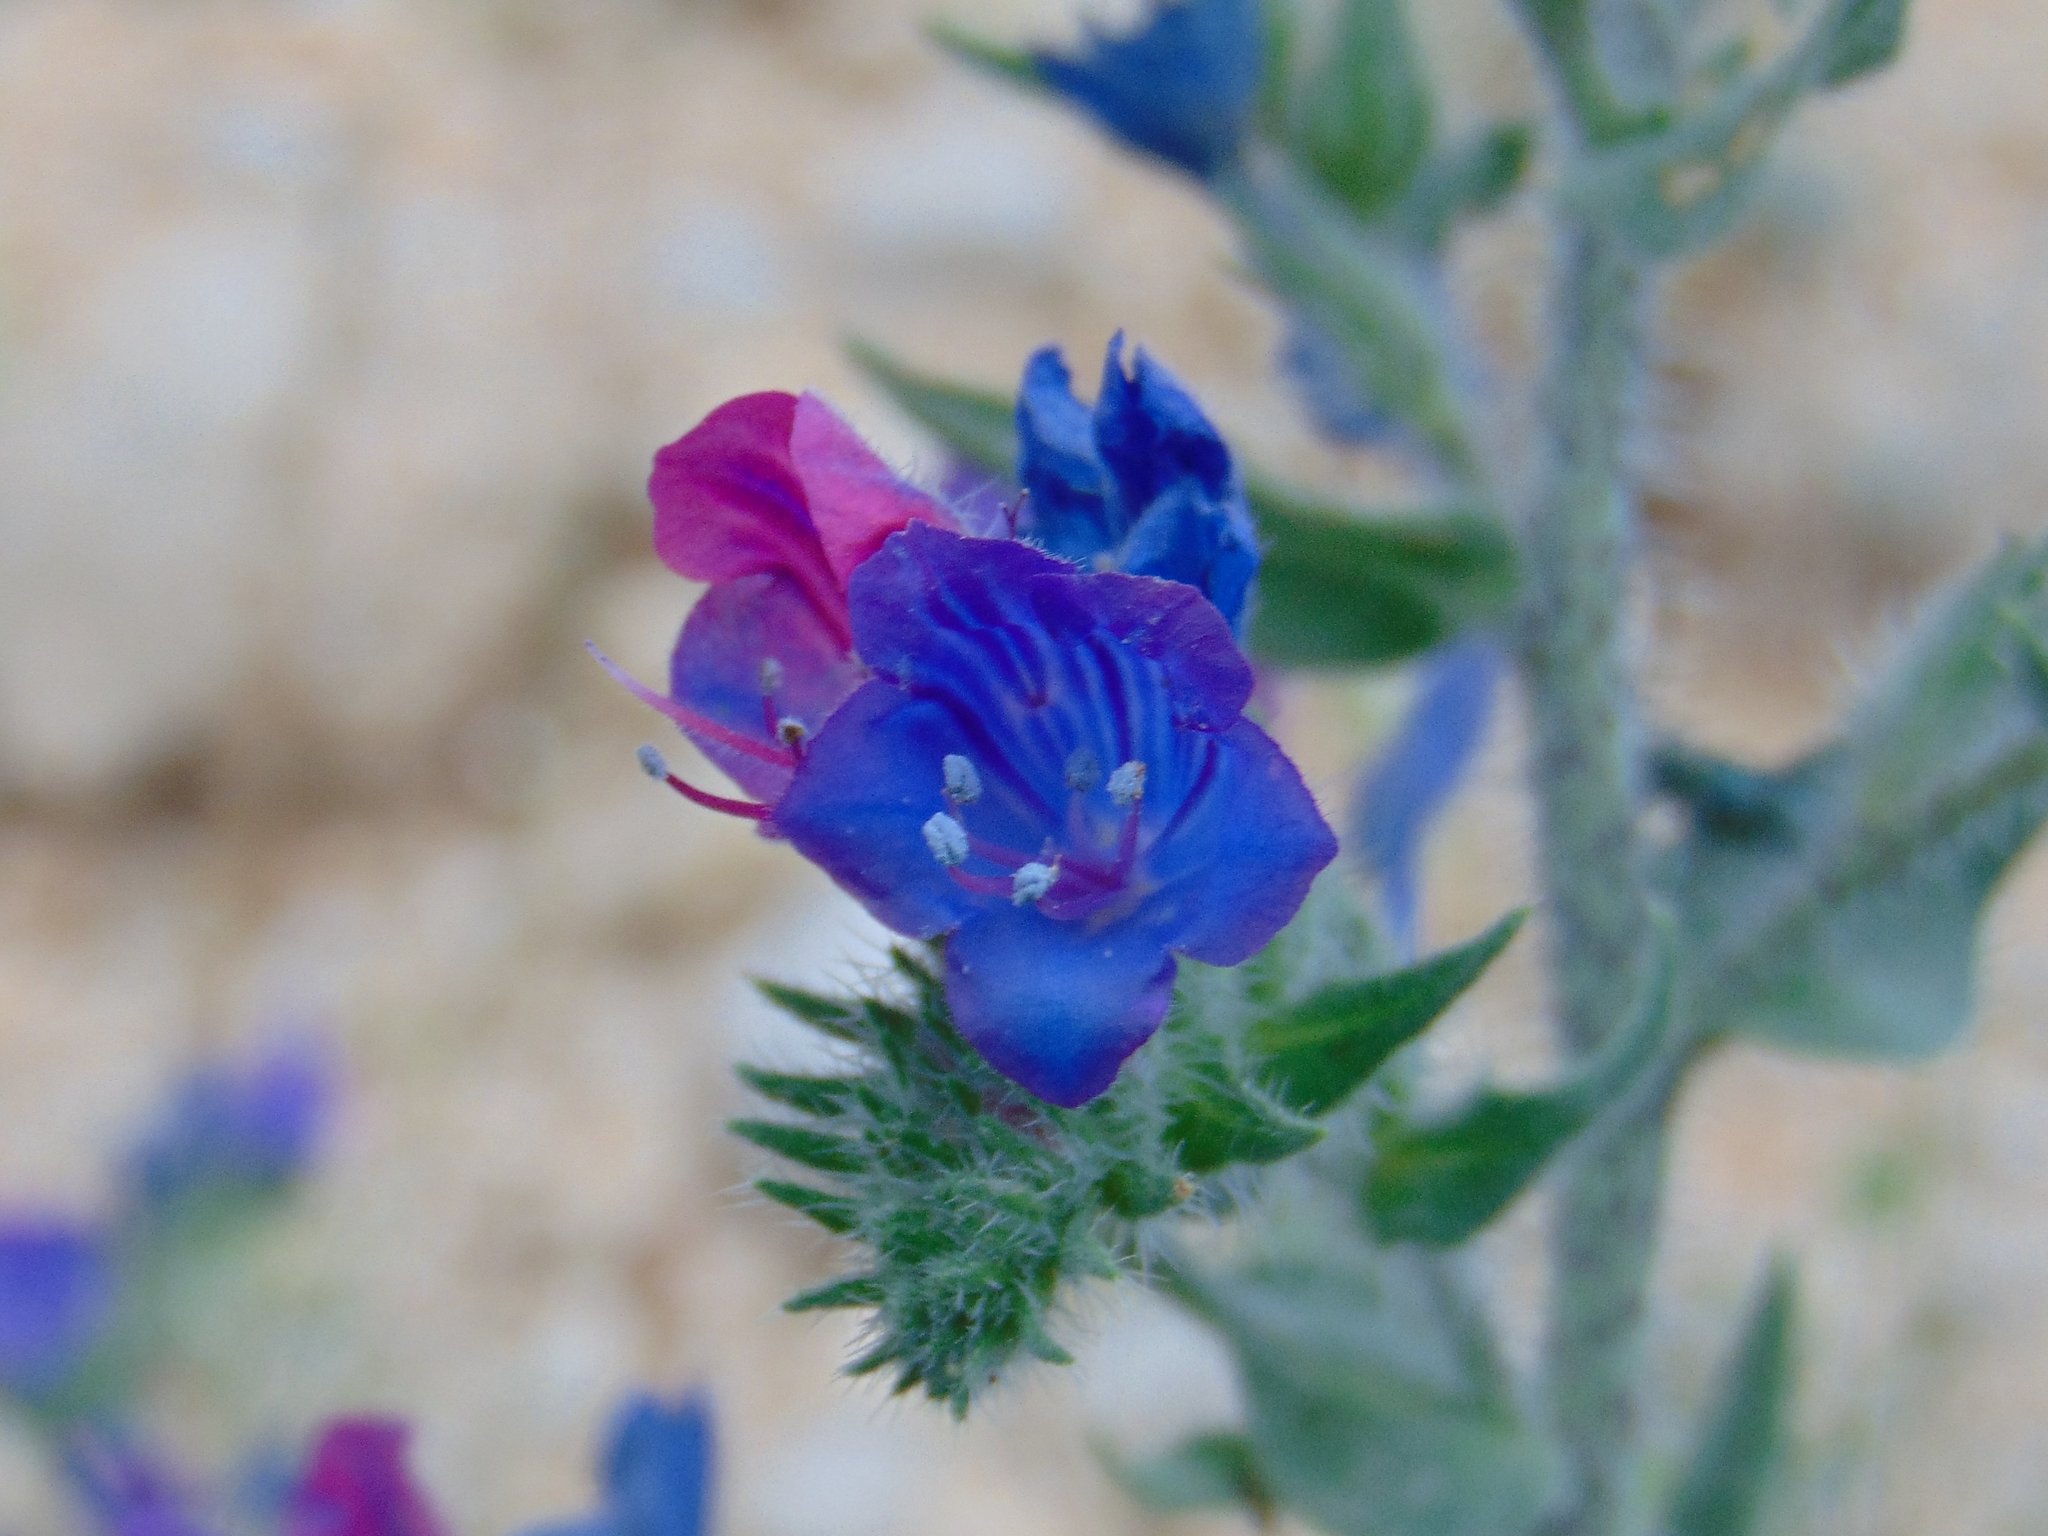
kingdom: Plantae
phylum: Tracheophyta
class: Magnoliopsida
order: Boraginales
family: Boraginaceae
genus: Echium
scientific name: Echium vulgare
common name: Common viper's bugloss
